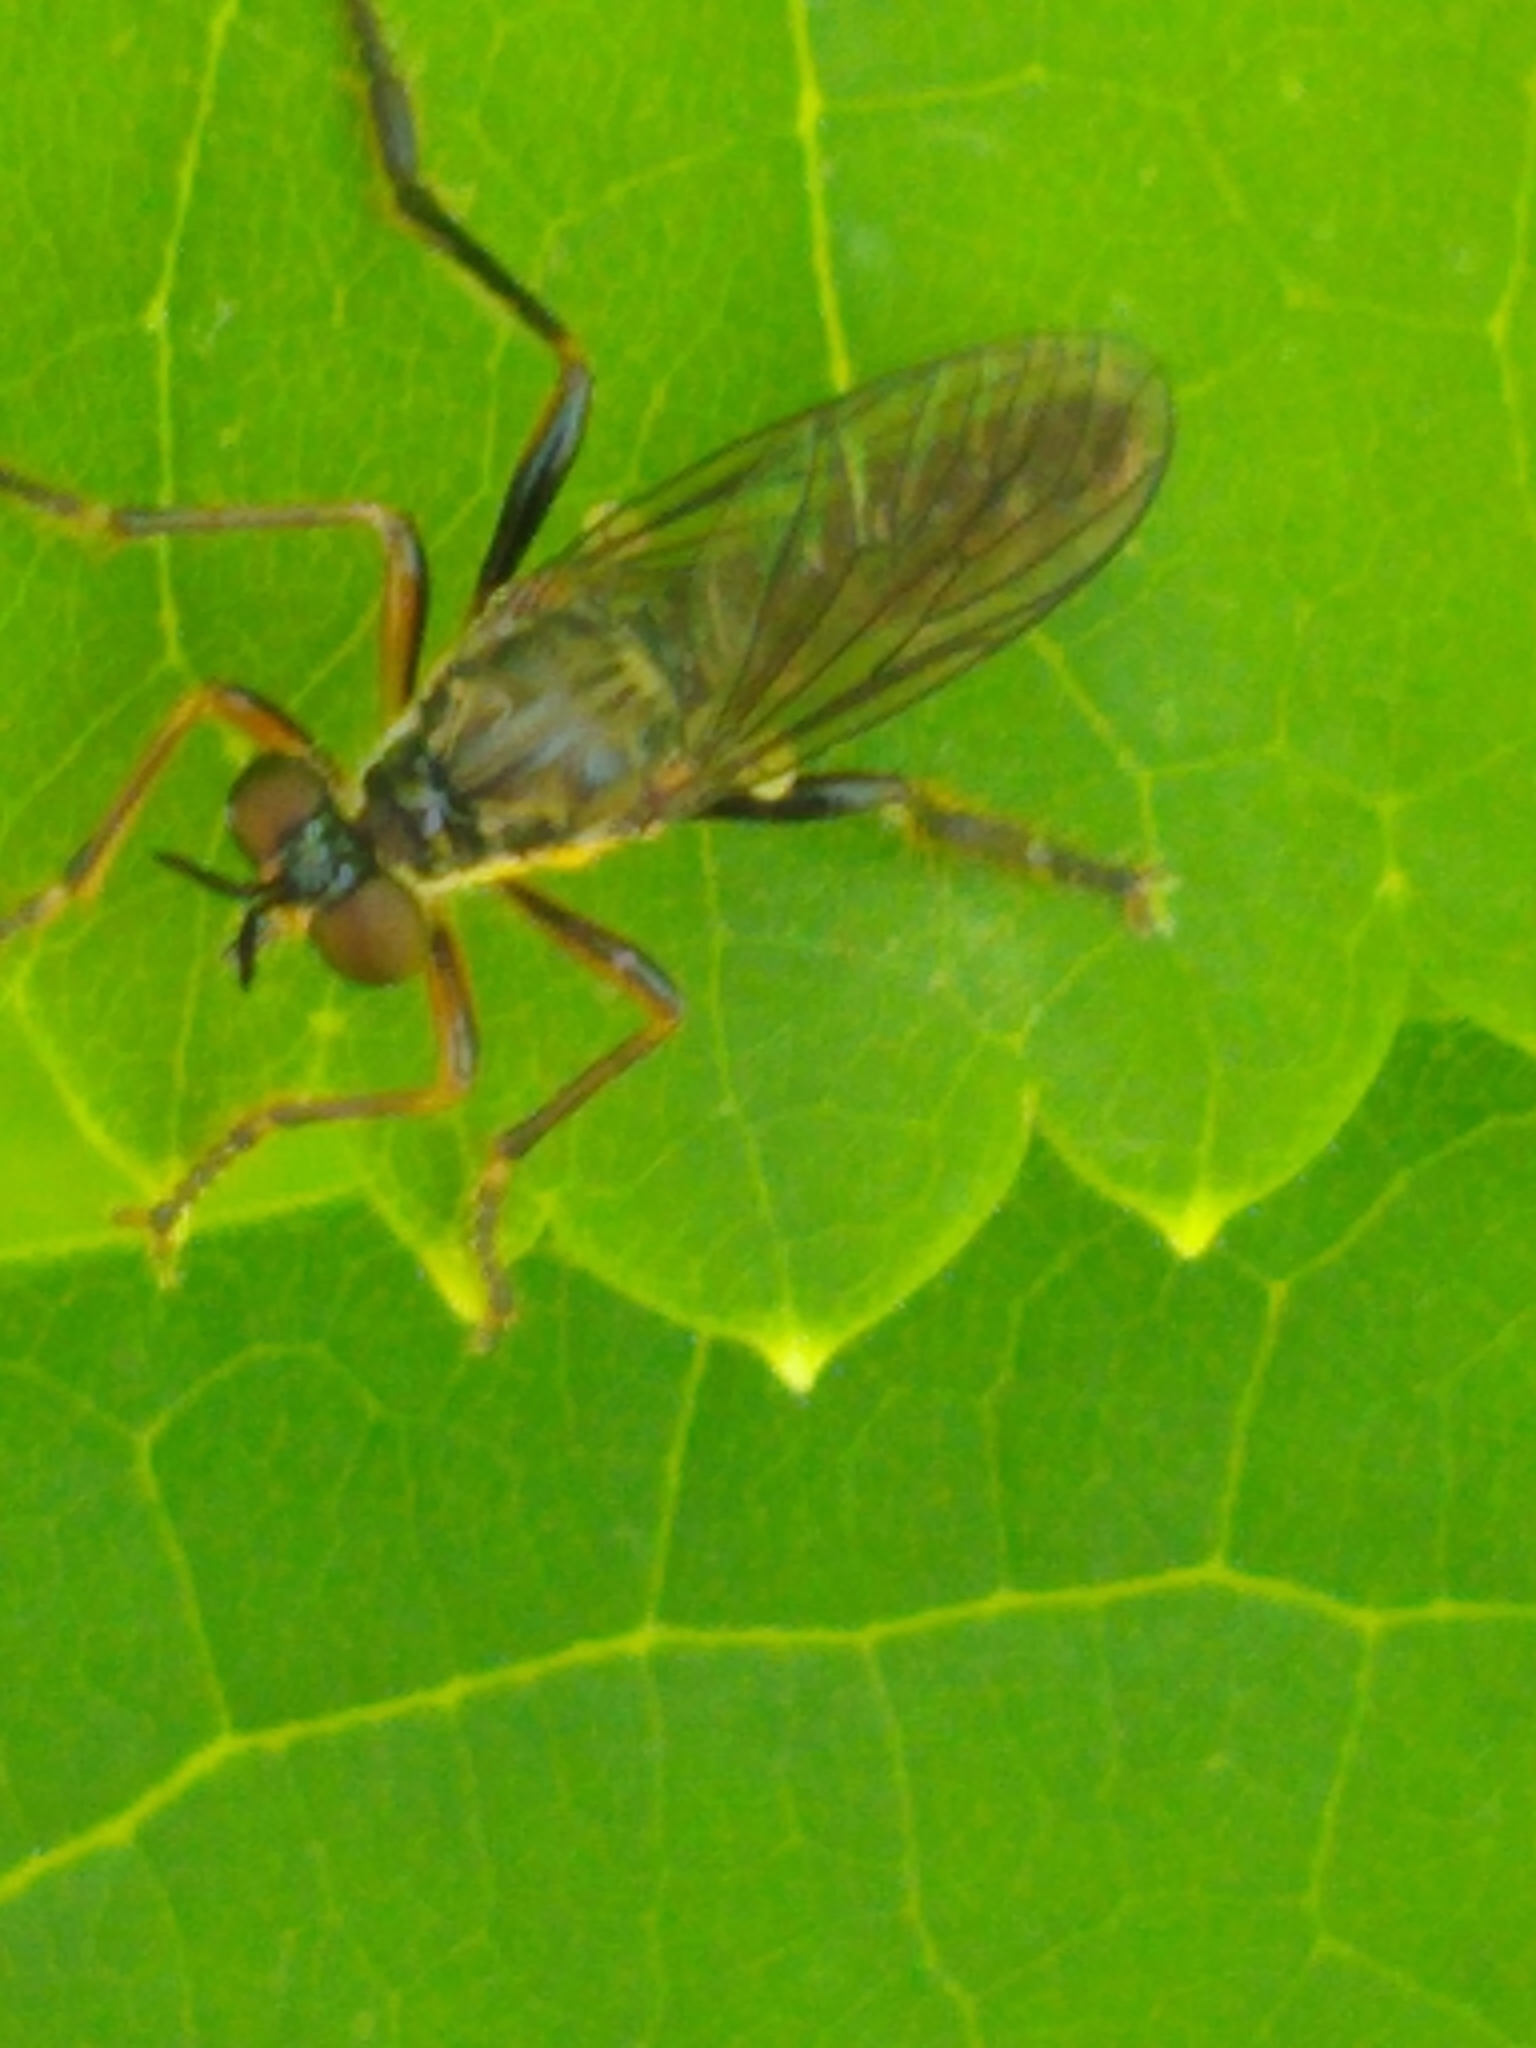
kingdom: Animalia
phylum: Arthropoda
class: Insecta
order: Diptera
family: Asilidae
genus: Dioctria
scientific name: Dioctria hyalipennis
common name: Stripe-legged robberfly
